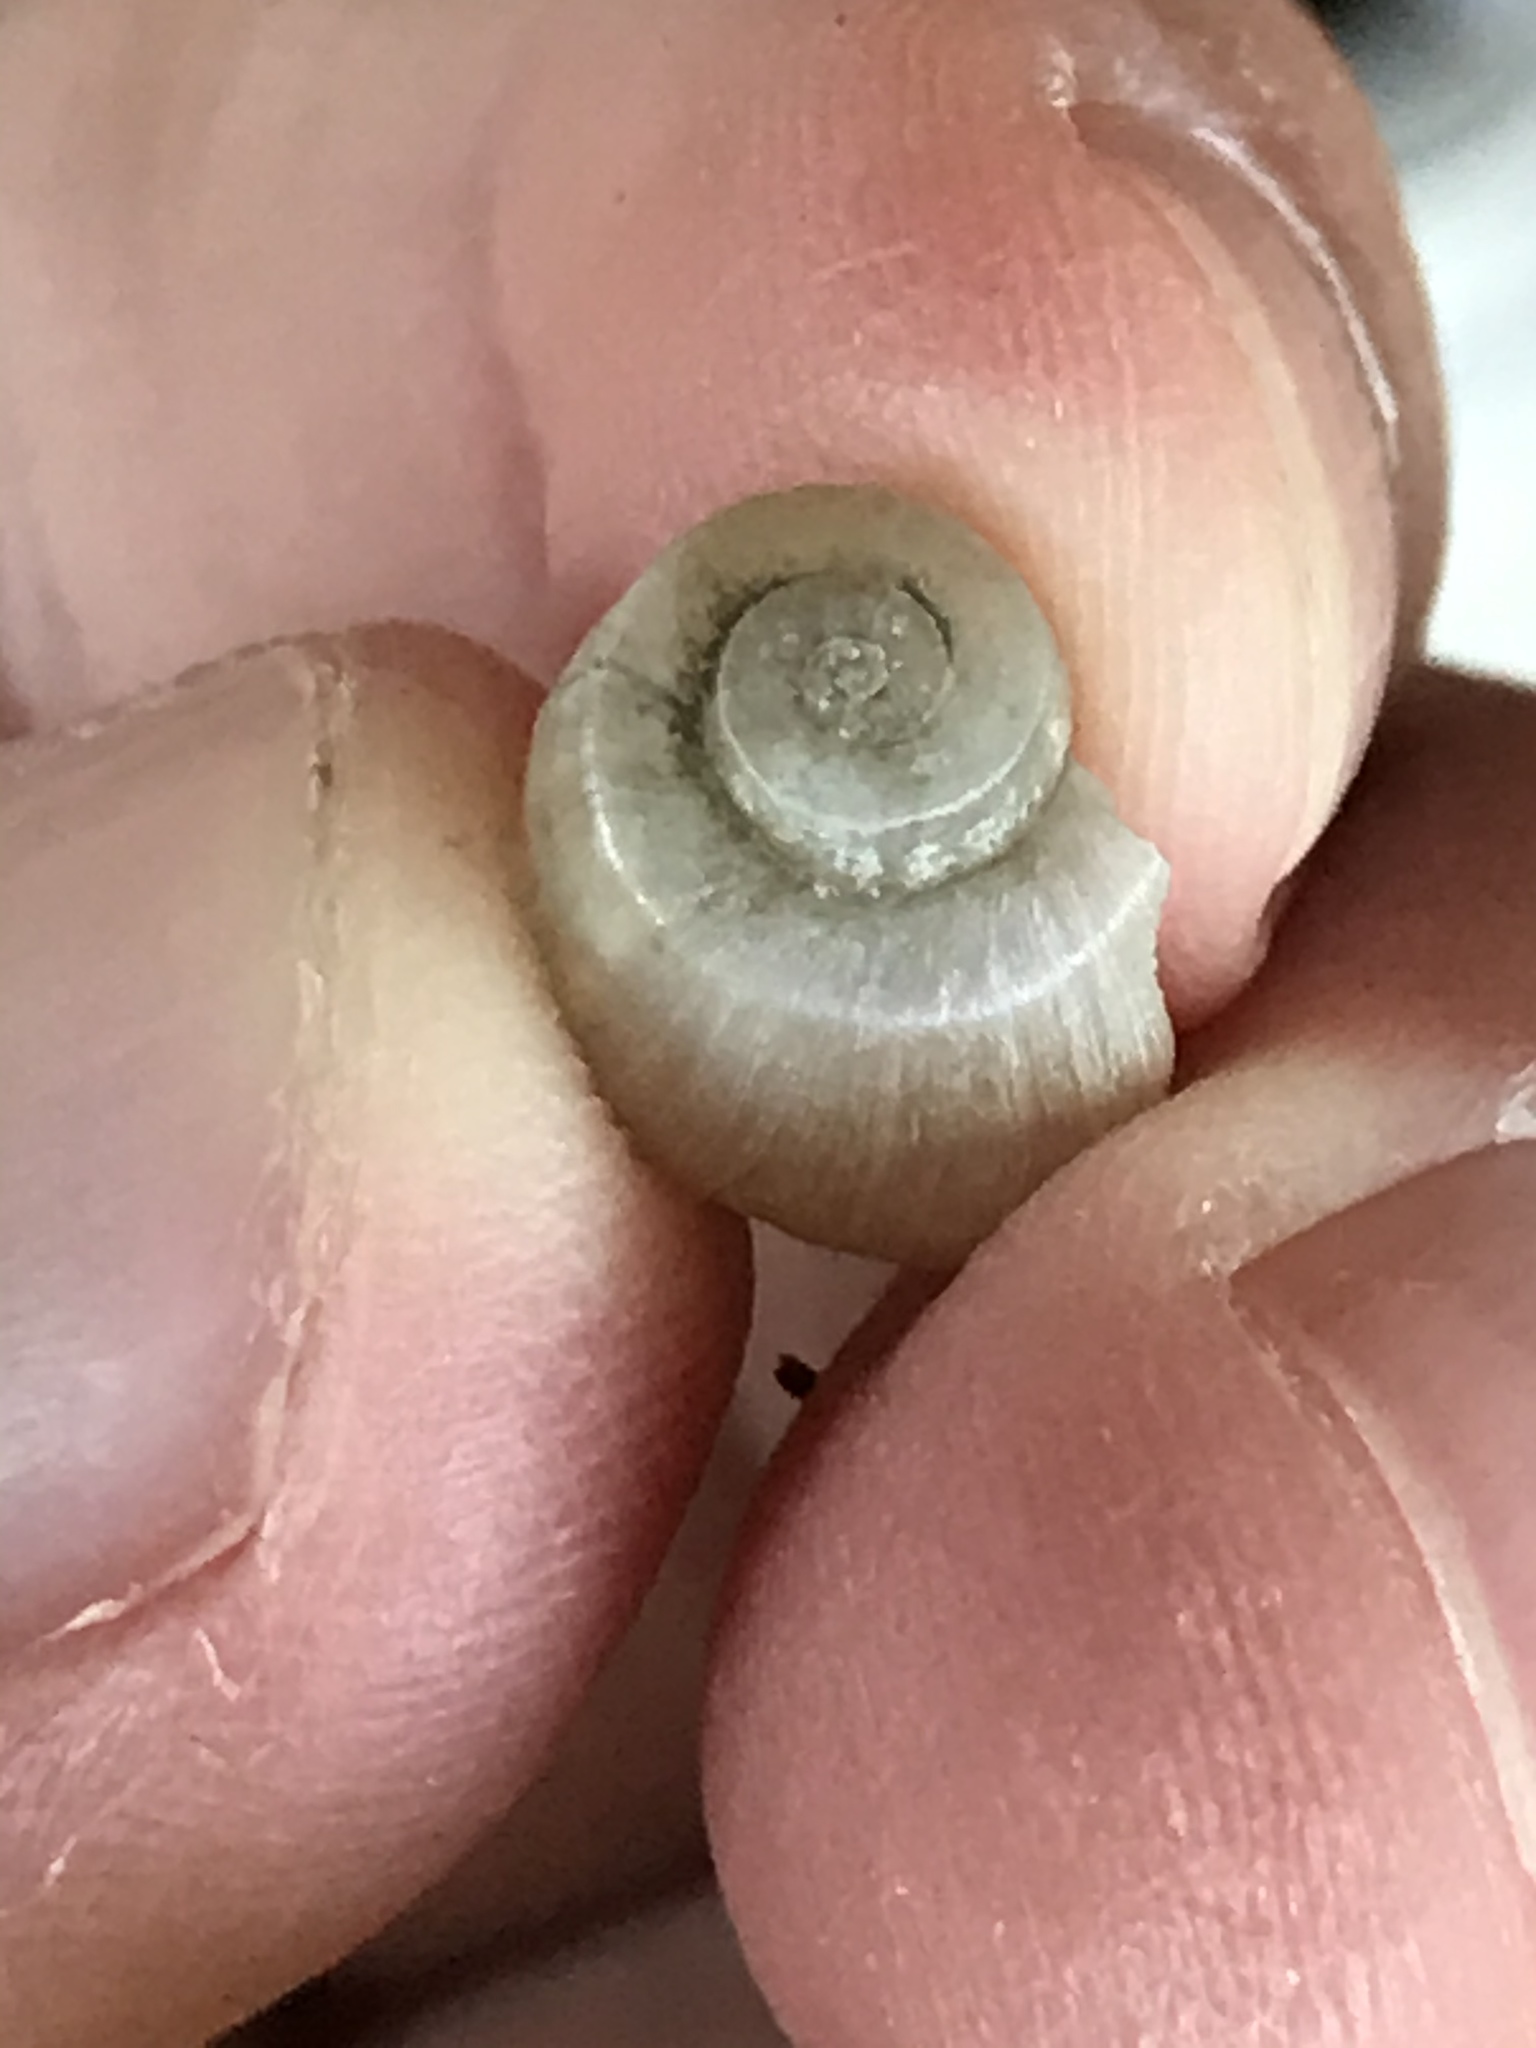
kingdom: Animalia
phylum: Mollusca
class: Gastropoda
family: Planorbidae
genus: Planorbella
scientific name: Planorbella scalaris
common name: Mesa ramshorn
